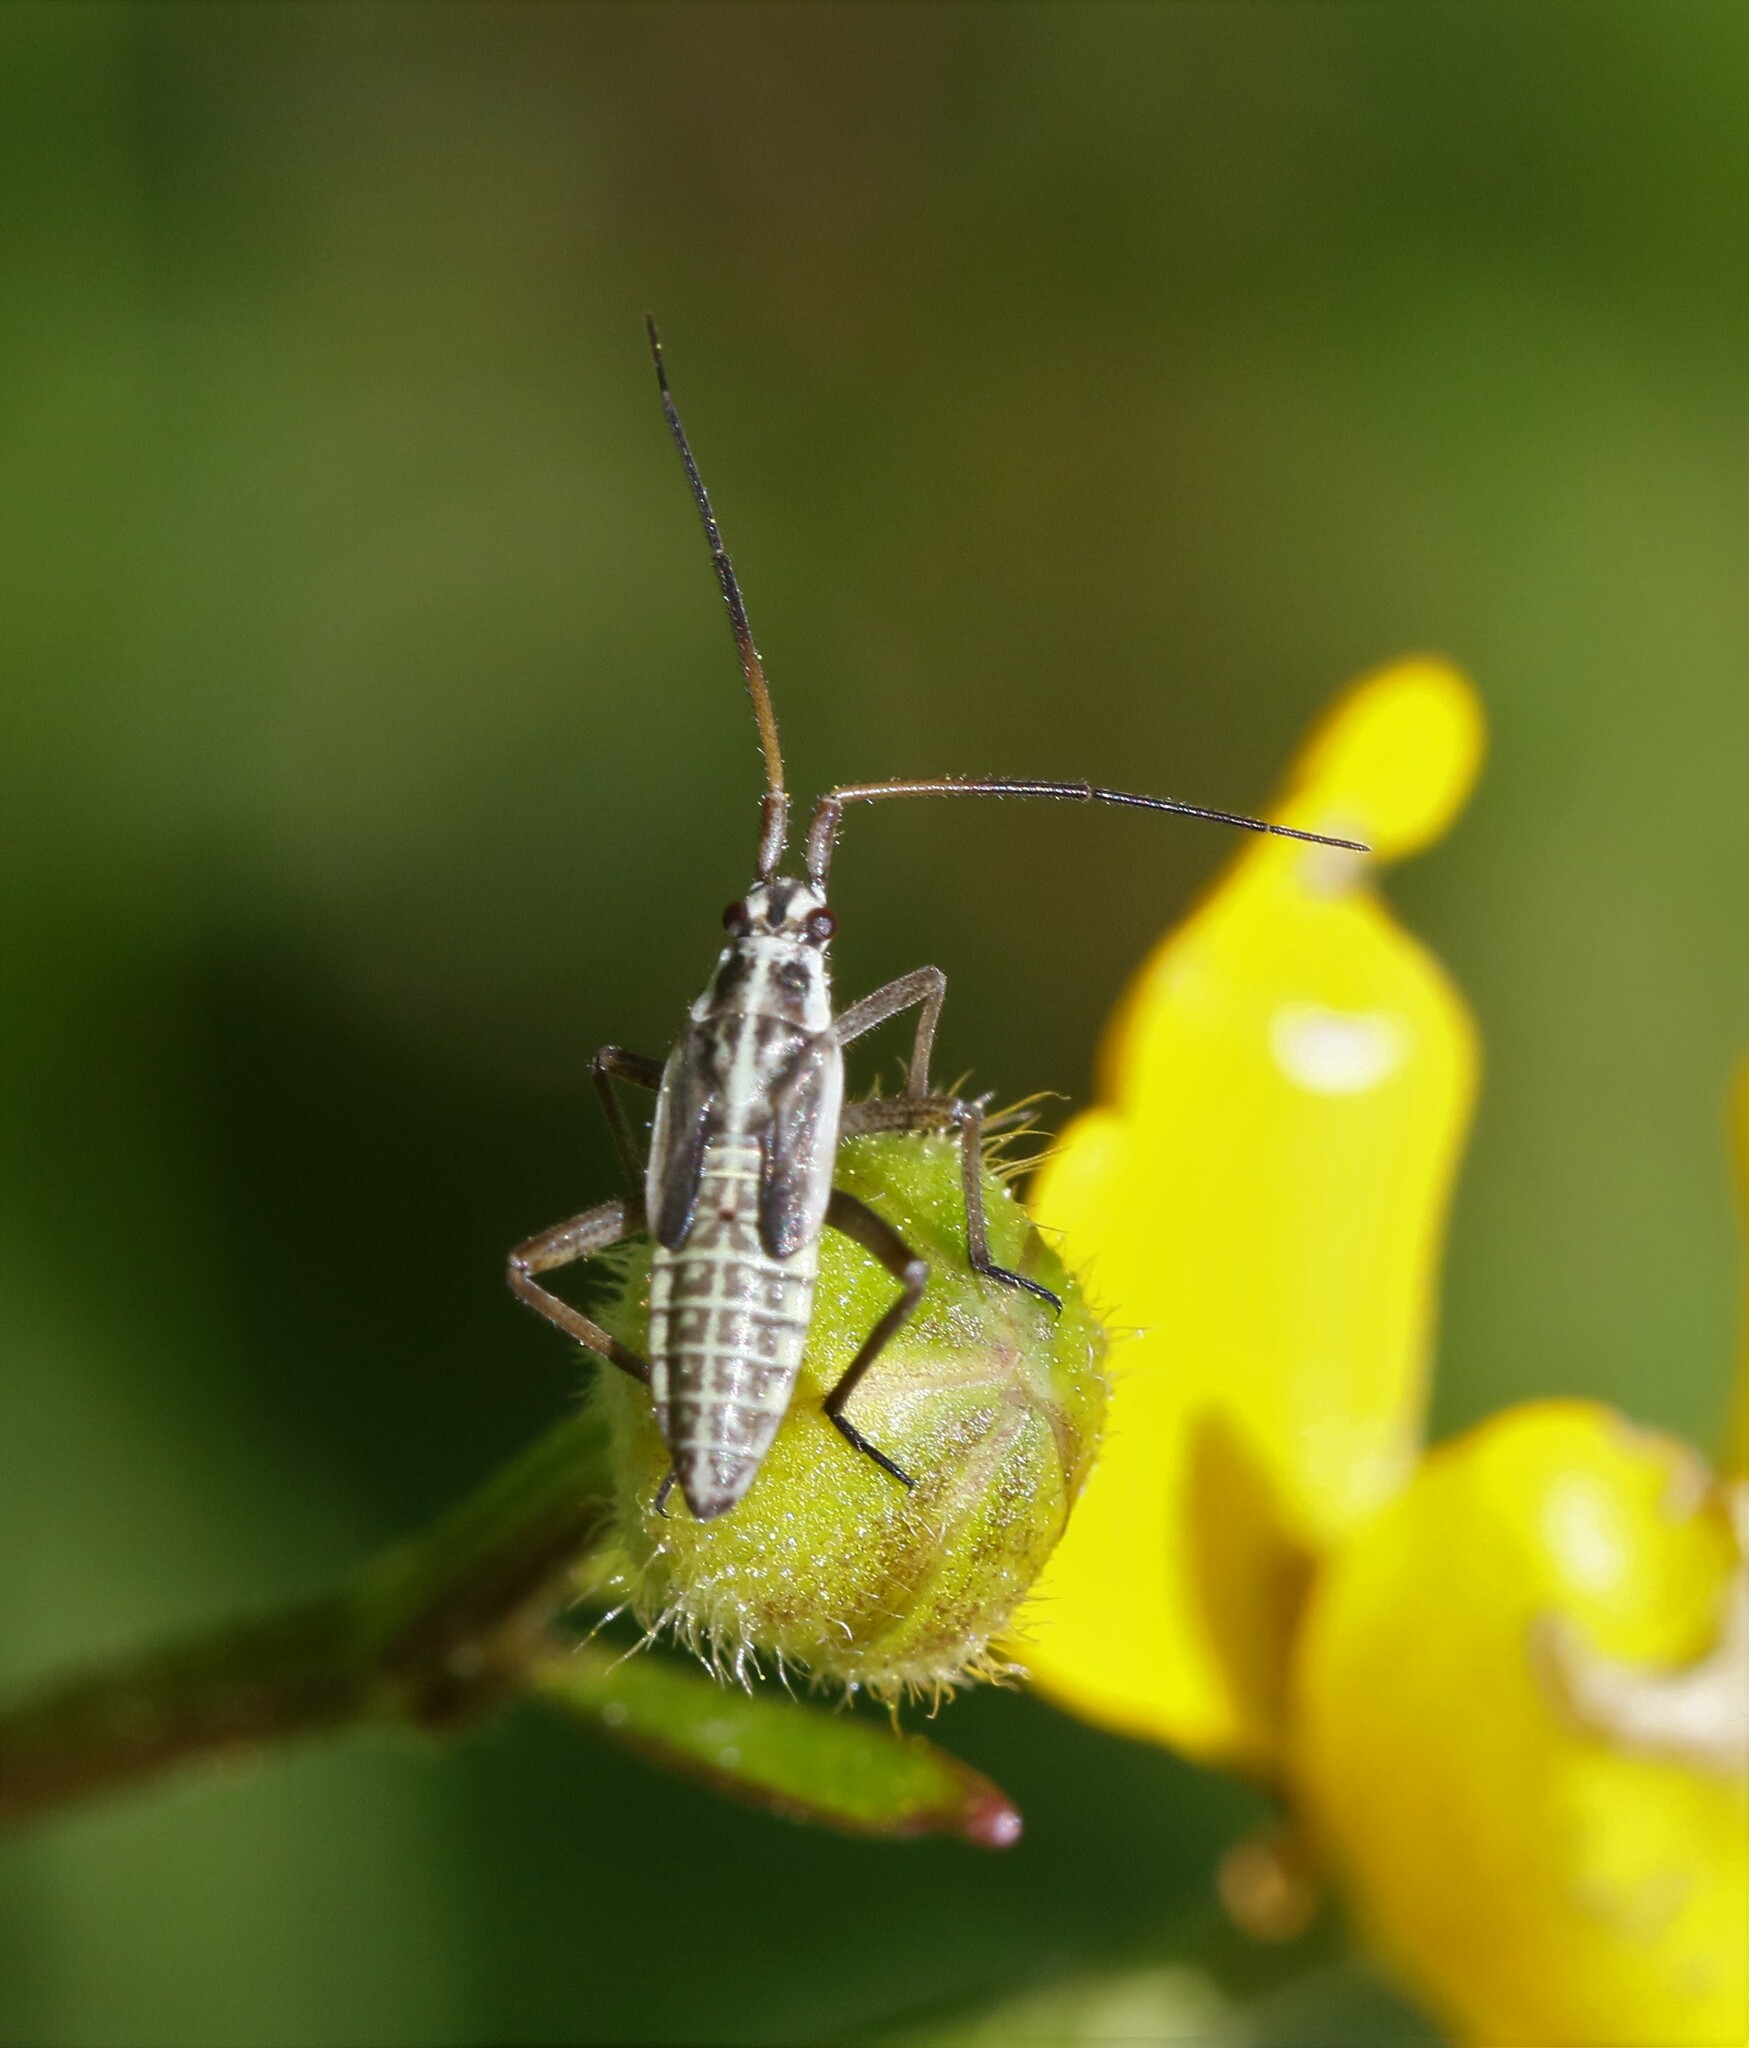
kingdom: Animalia
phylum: Arthropoda
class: Insecta
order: Hemiptera
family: Miridae
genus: Leptopterna
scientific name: Leptopterna dolabrata
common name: Meadow plant bug
